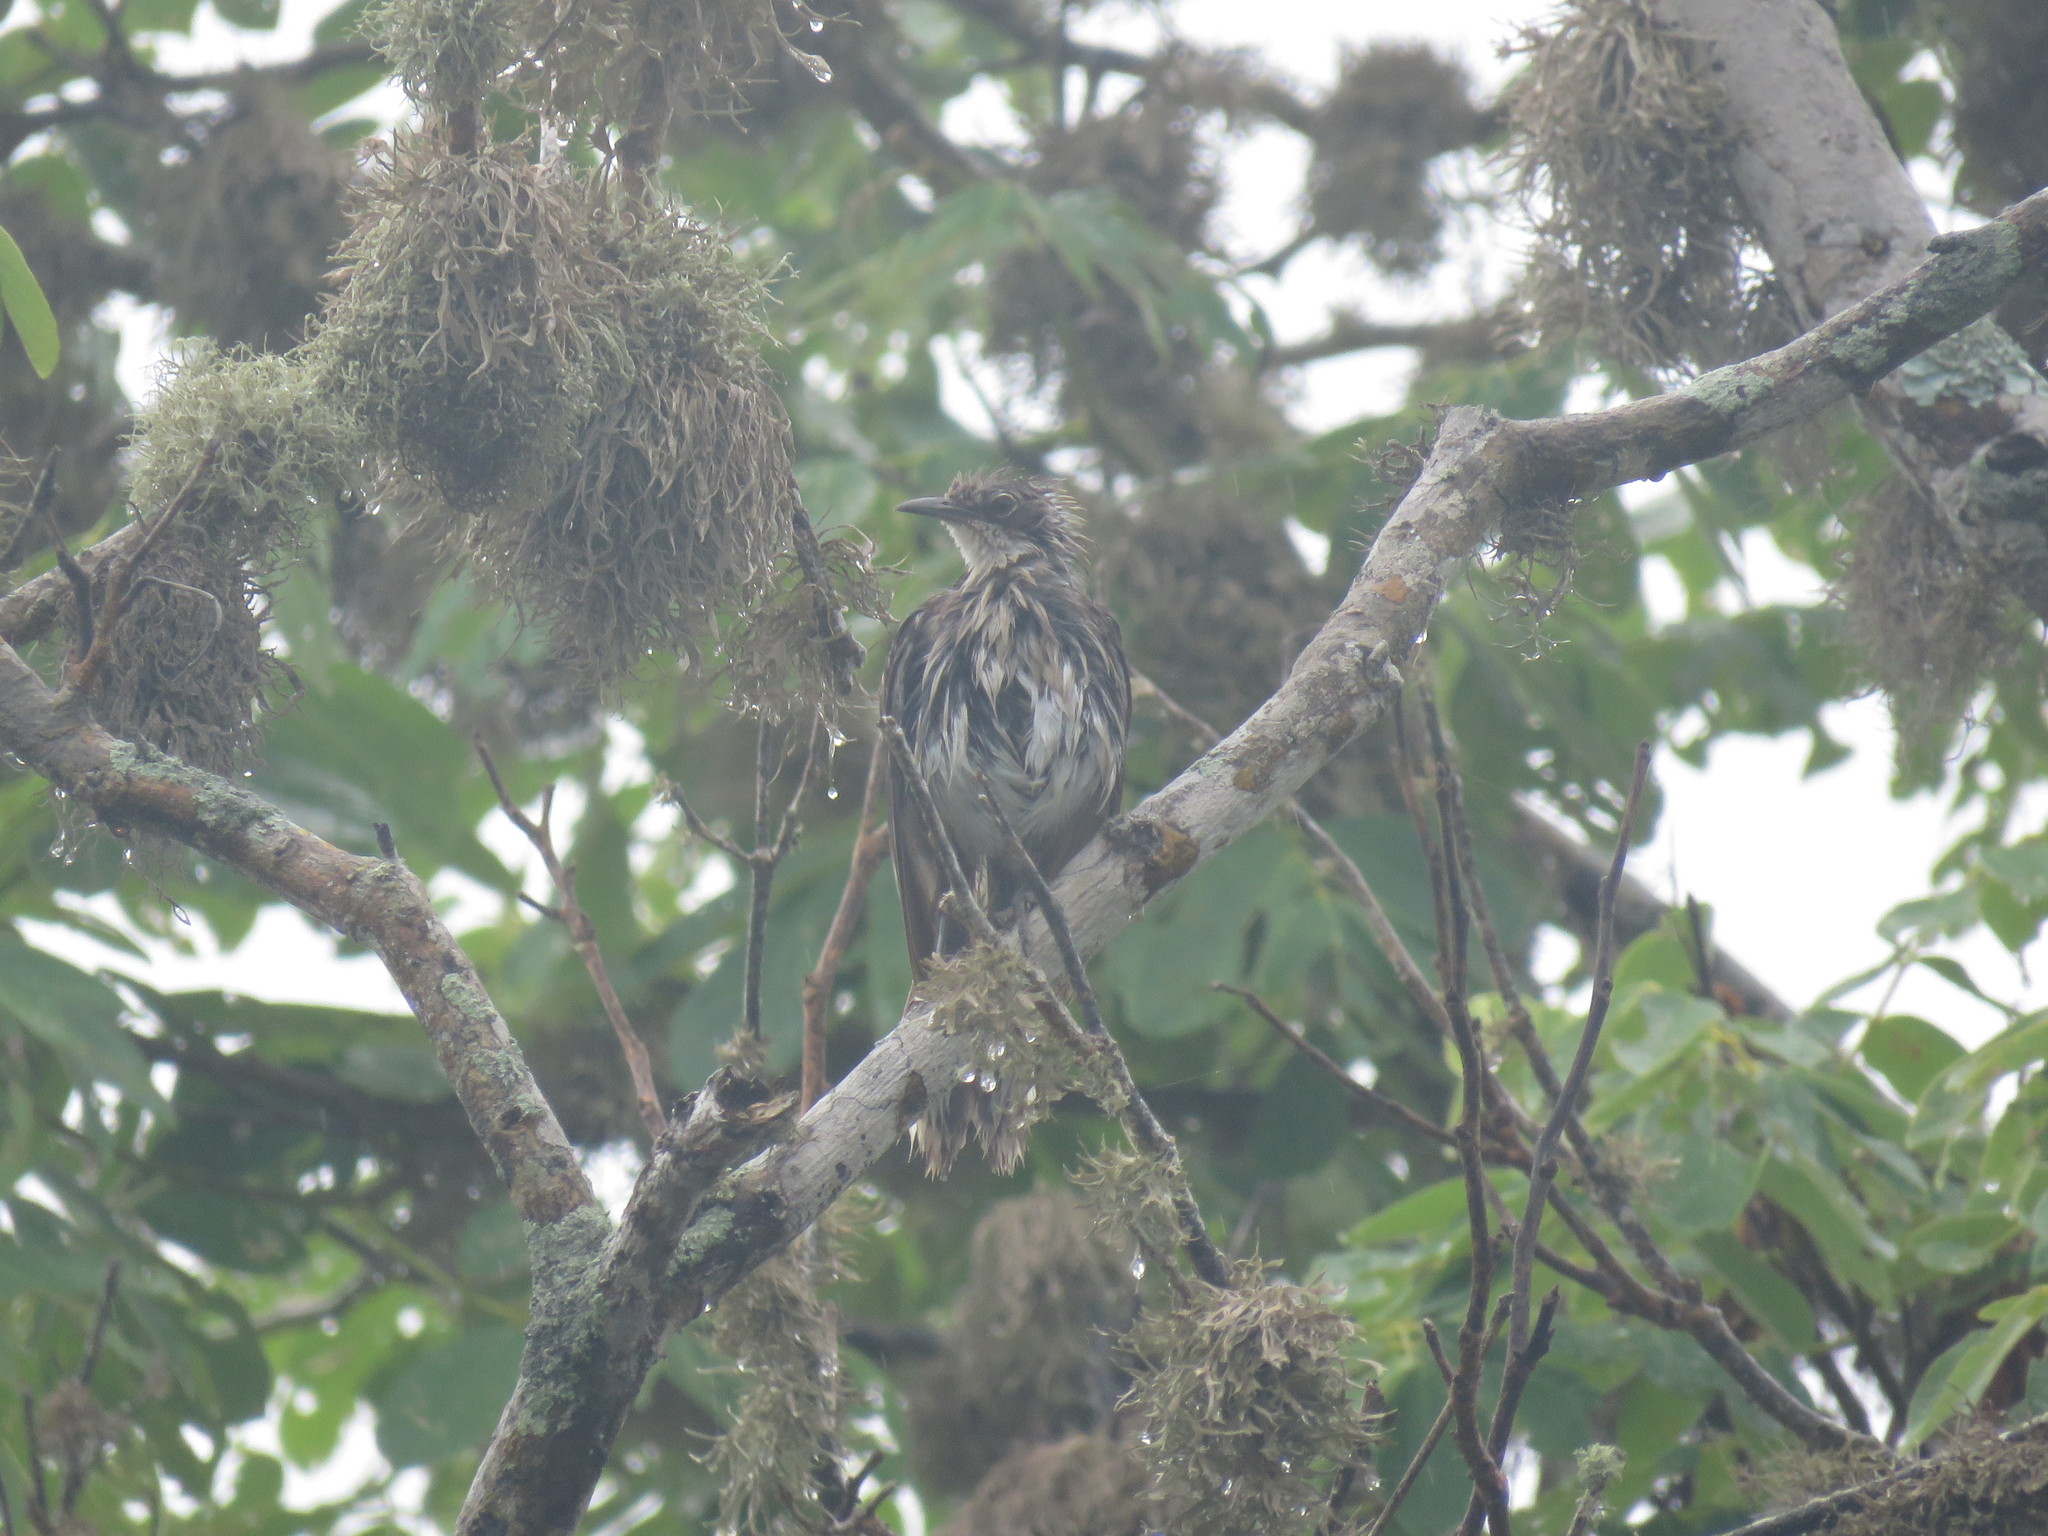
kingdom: Animalia
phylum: Chordata
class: Aves
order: Passeriformes
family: Mimidae
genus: Mimus
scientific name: Mimus parvulus
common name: Galapagos mockingbird
